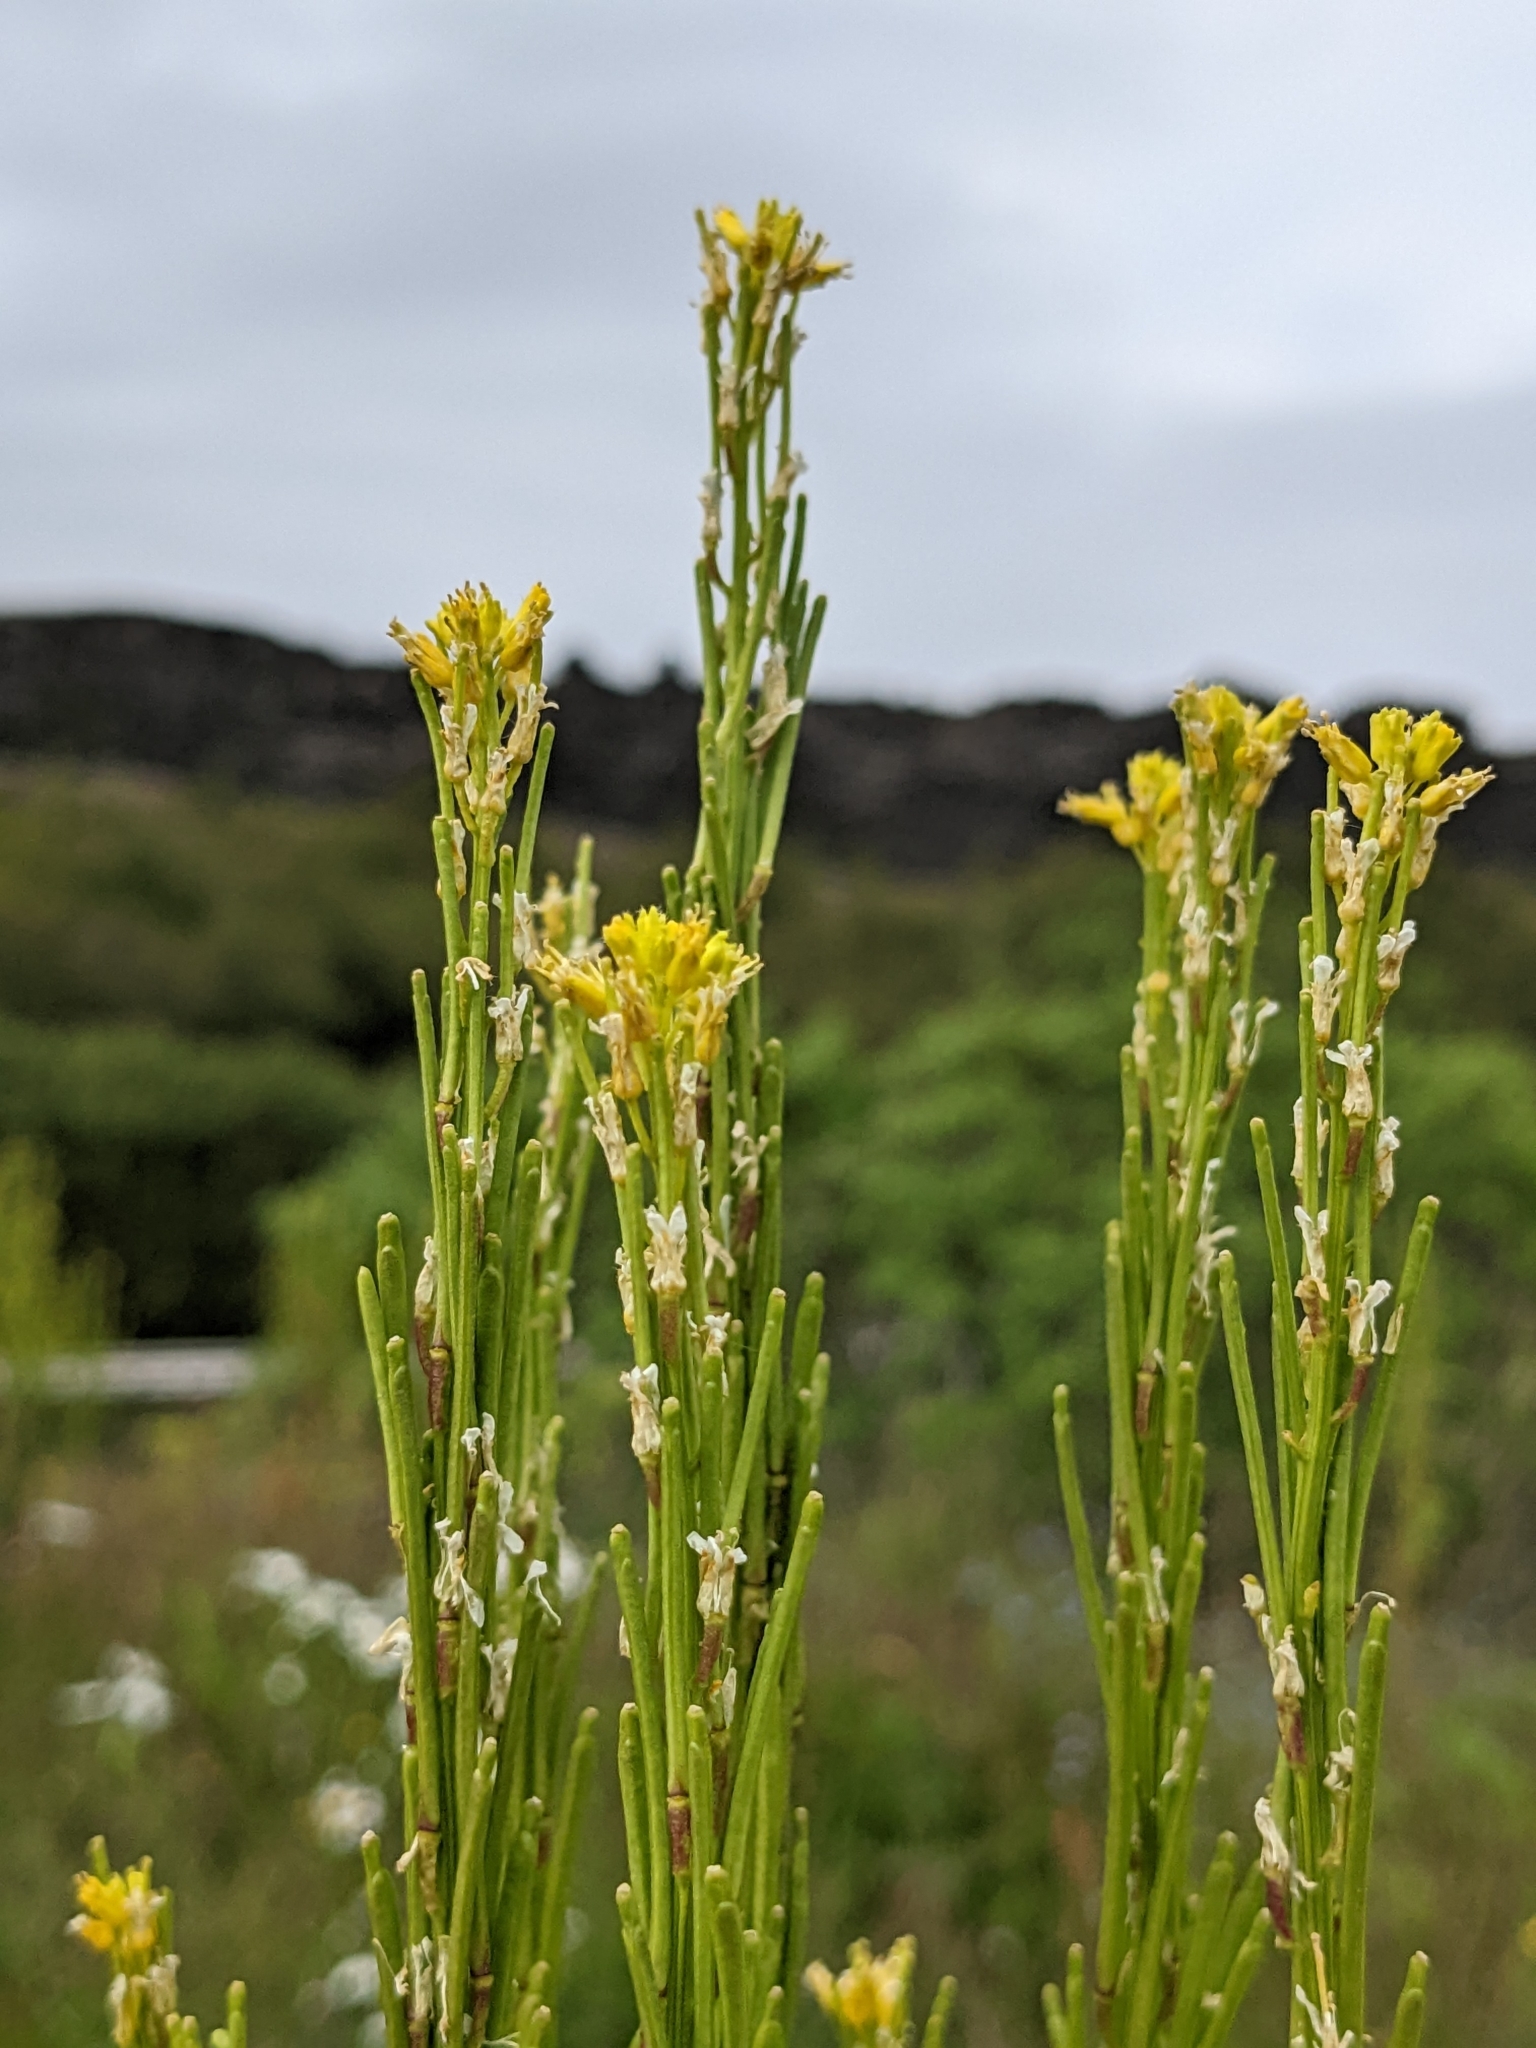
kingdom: Plantae
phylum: Tracheophyta
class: Magnoliopsida
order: Brassicales
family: Brassicaceae
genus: Barbarea
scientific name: Barbarea stricta
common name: Small-flowered winter-cress
